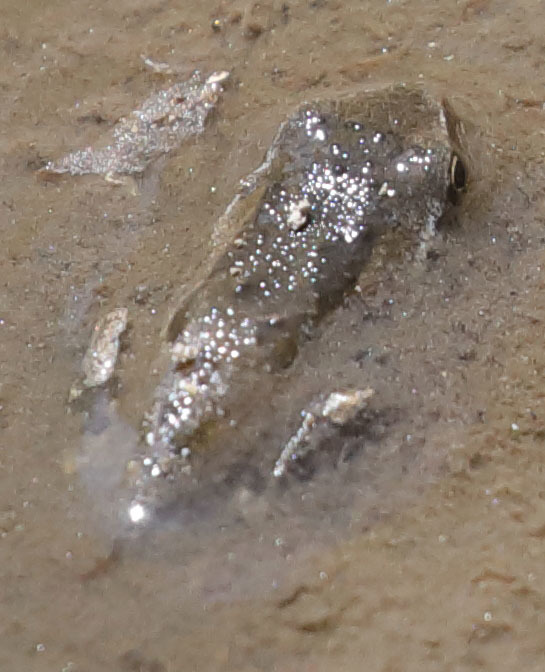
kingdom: Animalia
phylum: Chordata
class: Amphibia
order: Anura
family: Hylidae
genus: Pseudacris
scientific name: Pseudacris regilla
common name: Pacific chorus frog
